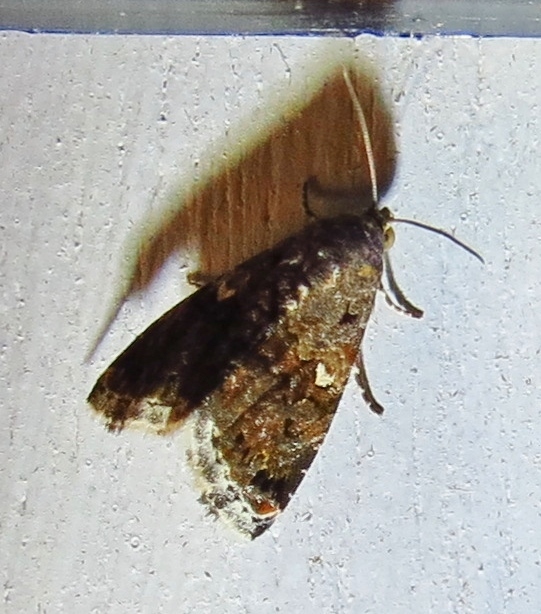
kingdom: Animalia
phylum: Arthropoda
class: Insecta
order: Lepidoptera
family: Noctuidae
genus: Tripudia
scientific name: Tripudia luxuriosa
